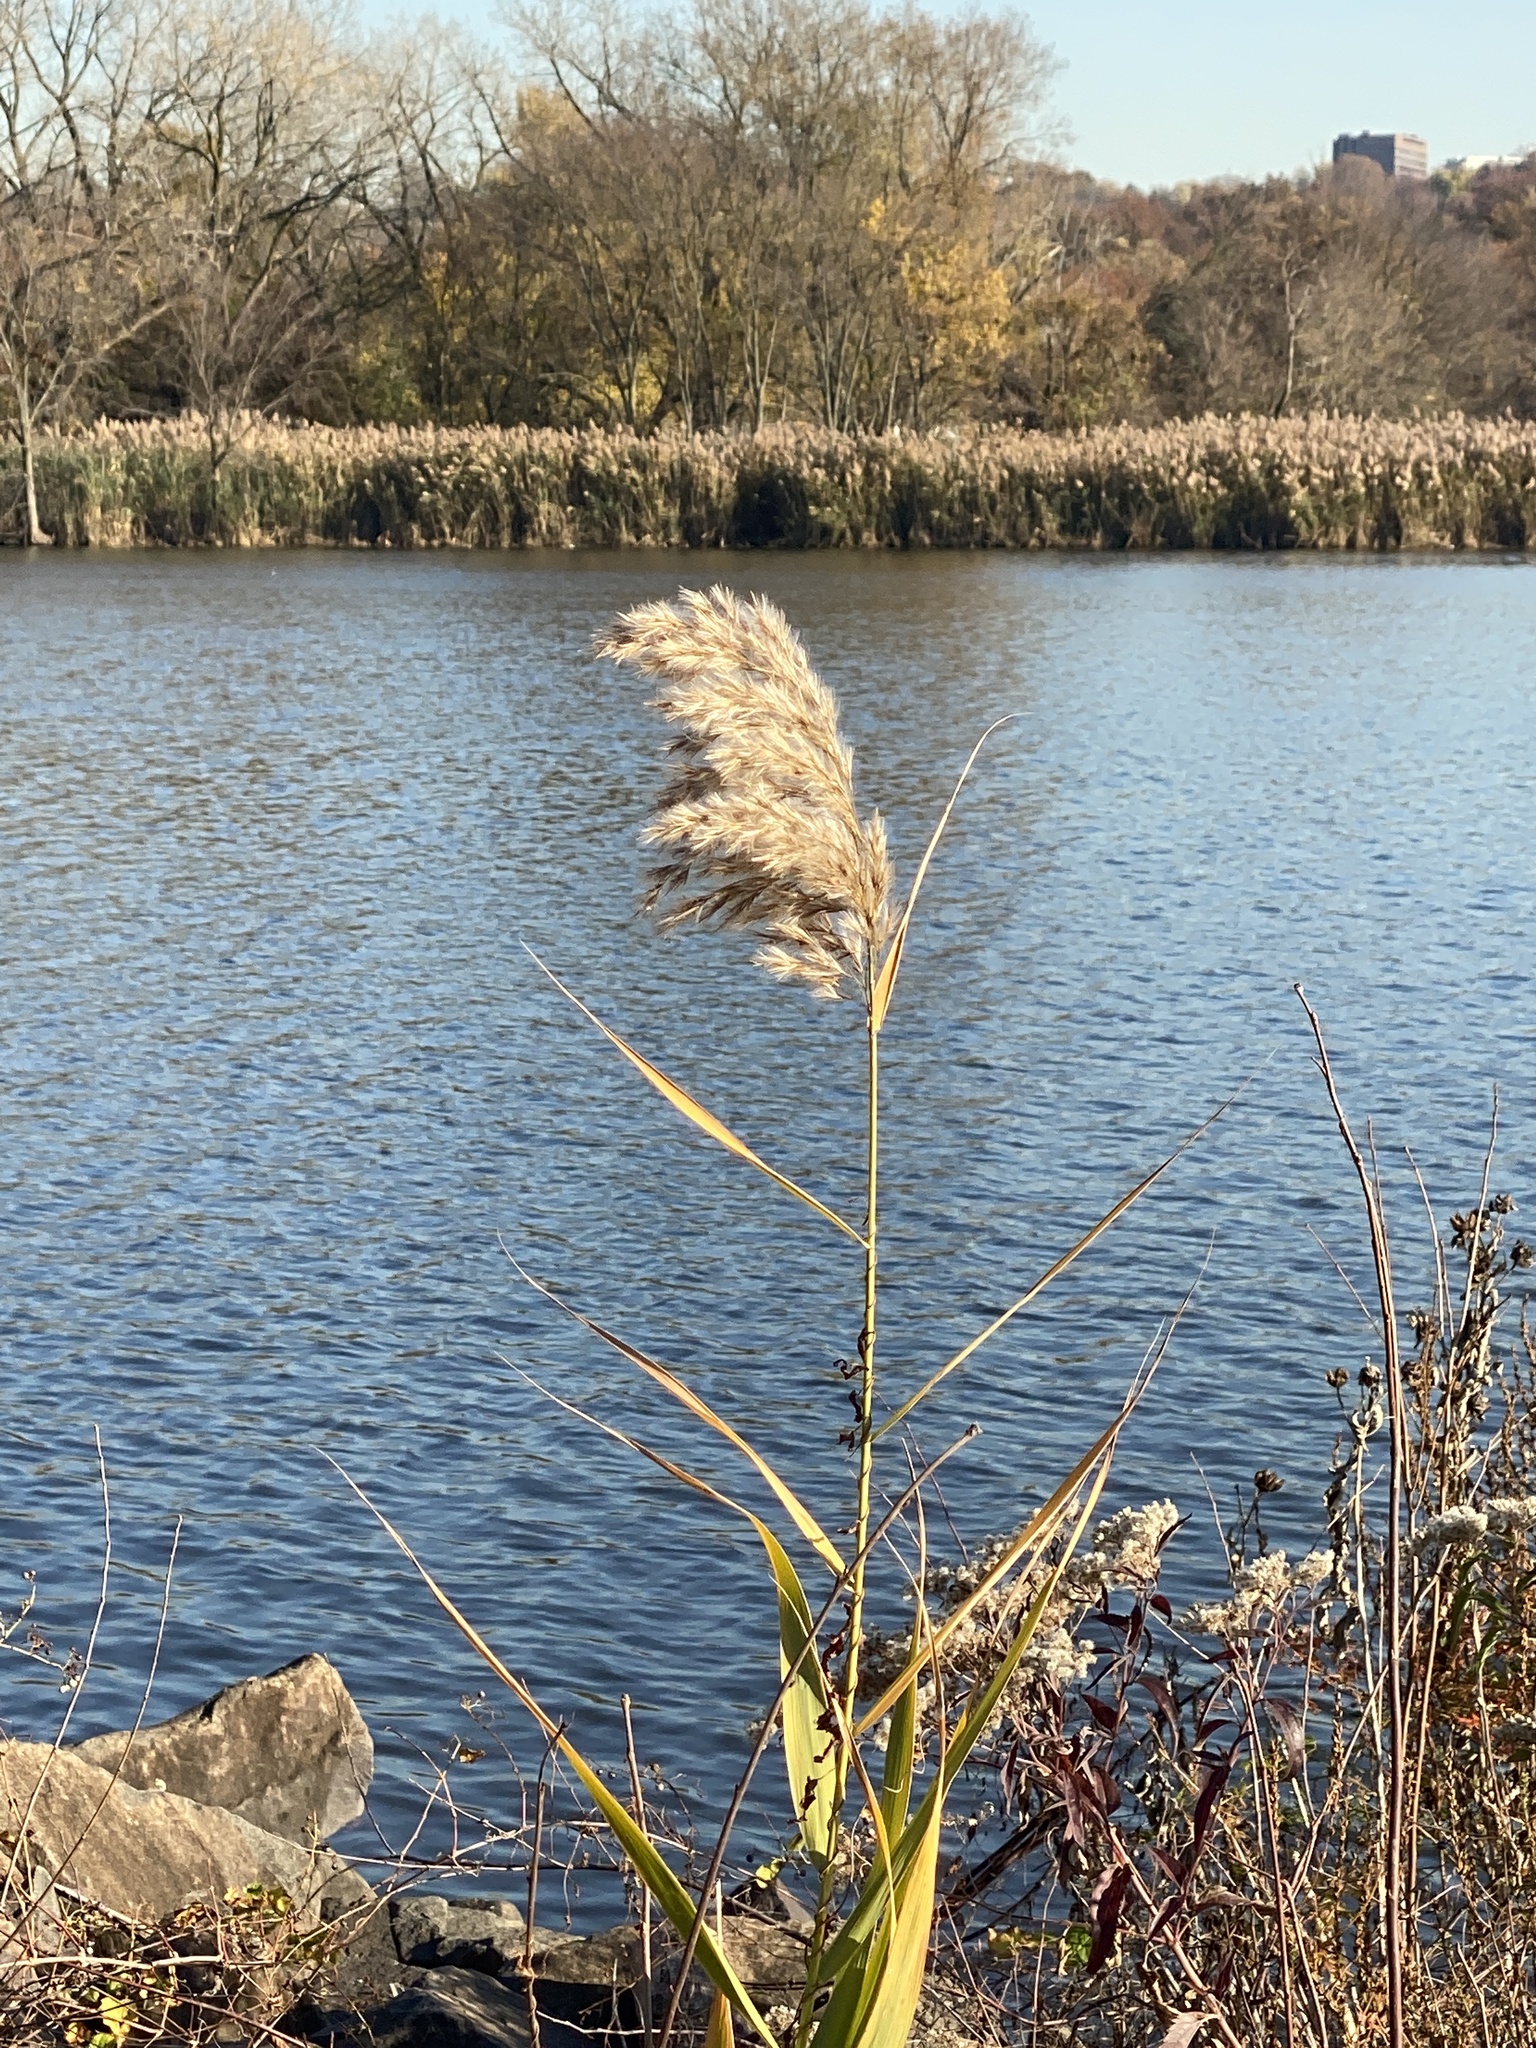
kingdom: Plantae
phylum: Tracheophyta
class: Liliopsida
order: Poales
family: Poaceae
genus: Phragmites
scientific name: Phragmites australis
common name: Common reed
